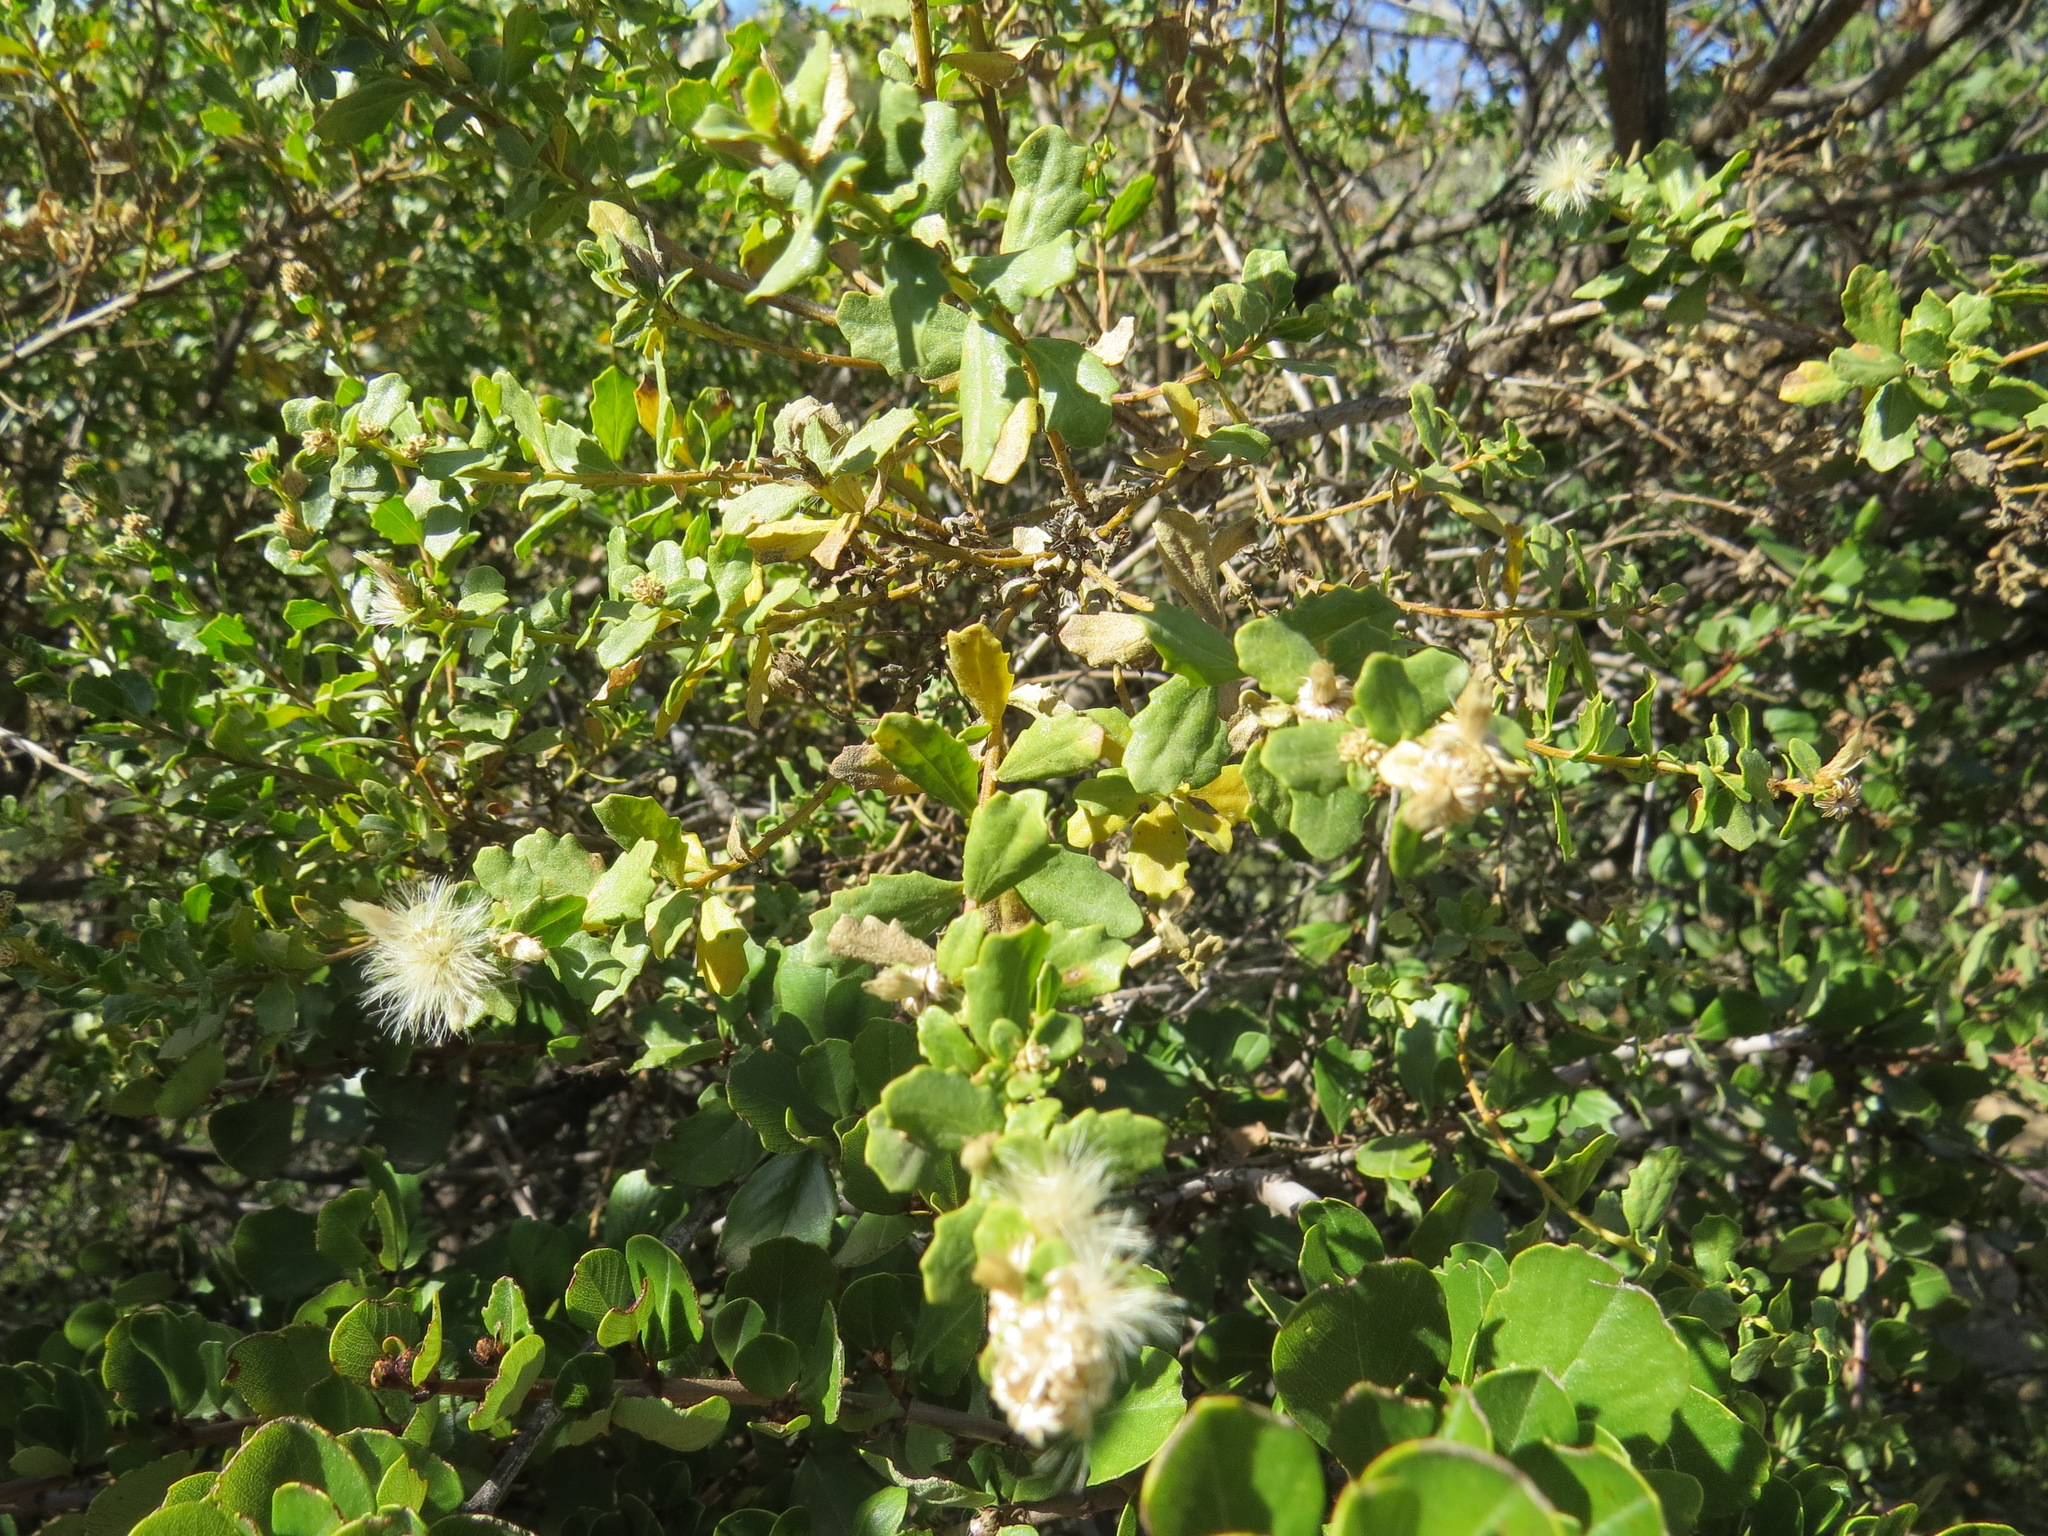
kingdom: Plantae
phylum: Tracheophyta
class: Magnoliopsida
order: Asterales
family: Asteraceae
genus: Baccharis
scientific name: Baccharis pilularis
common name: Coyotebrush
